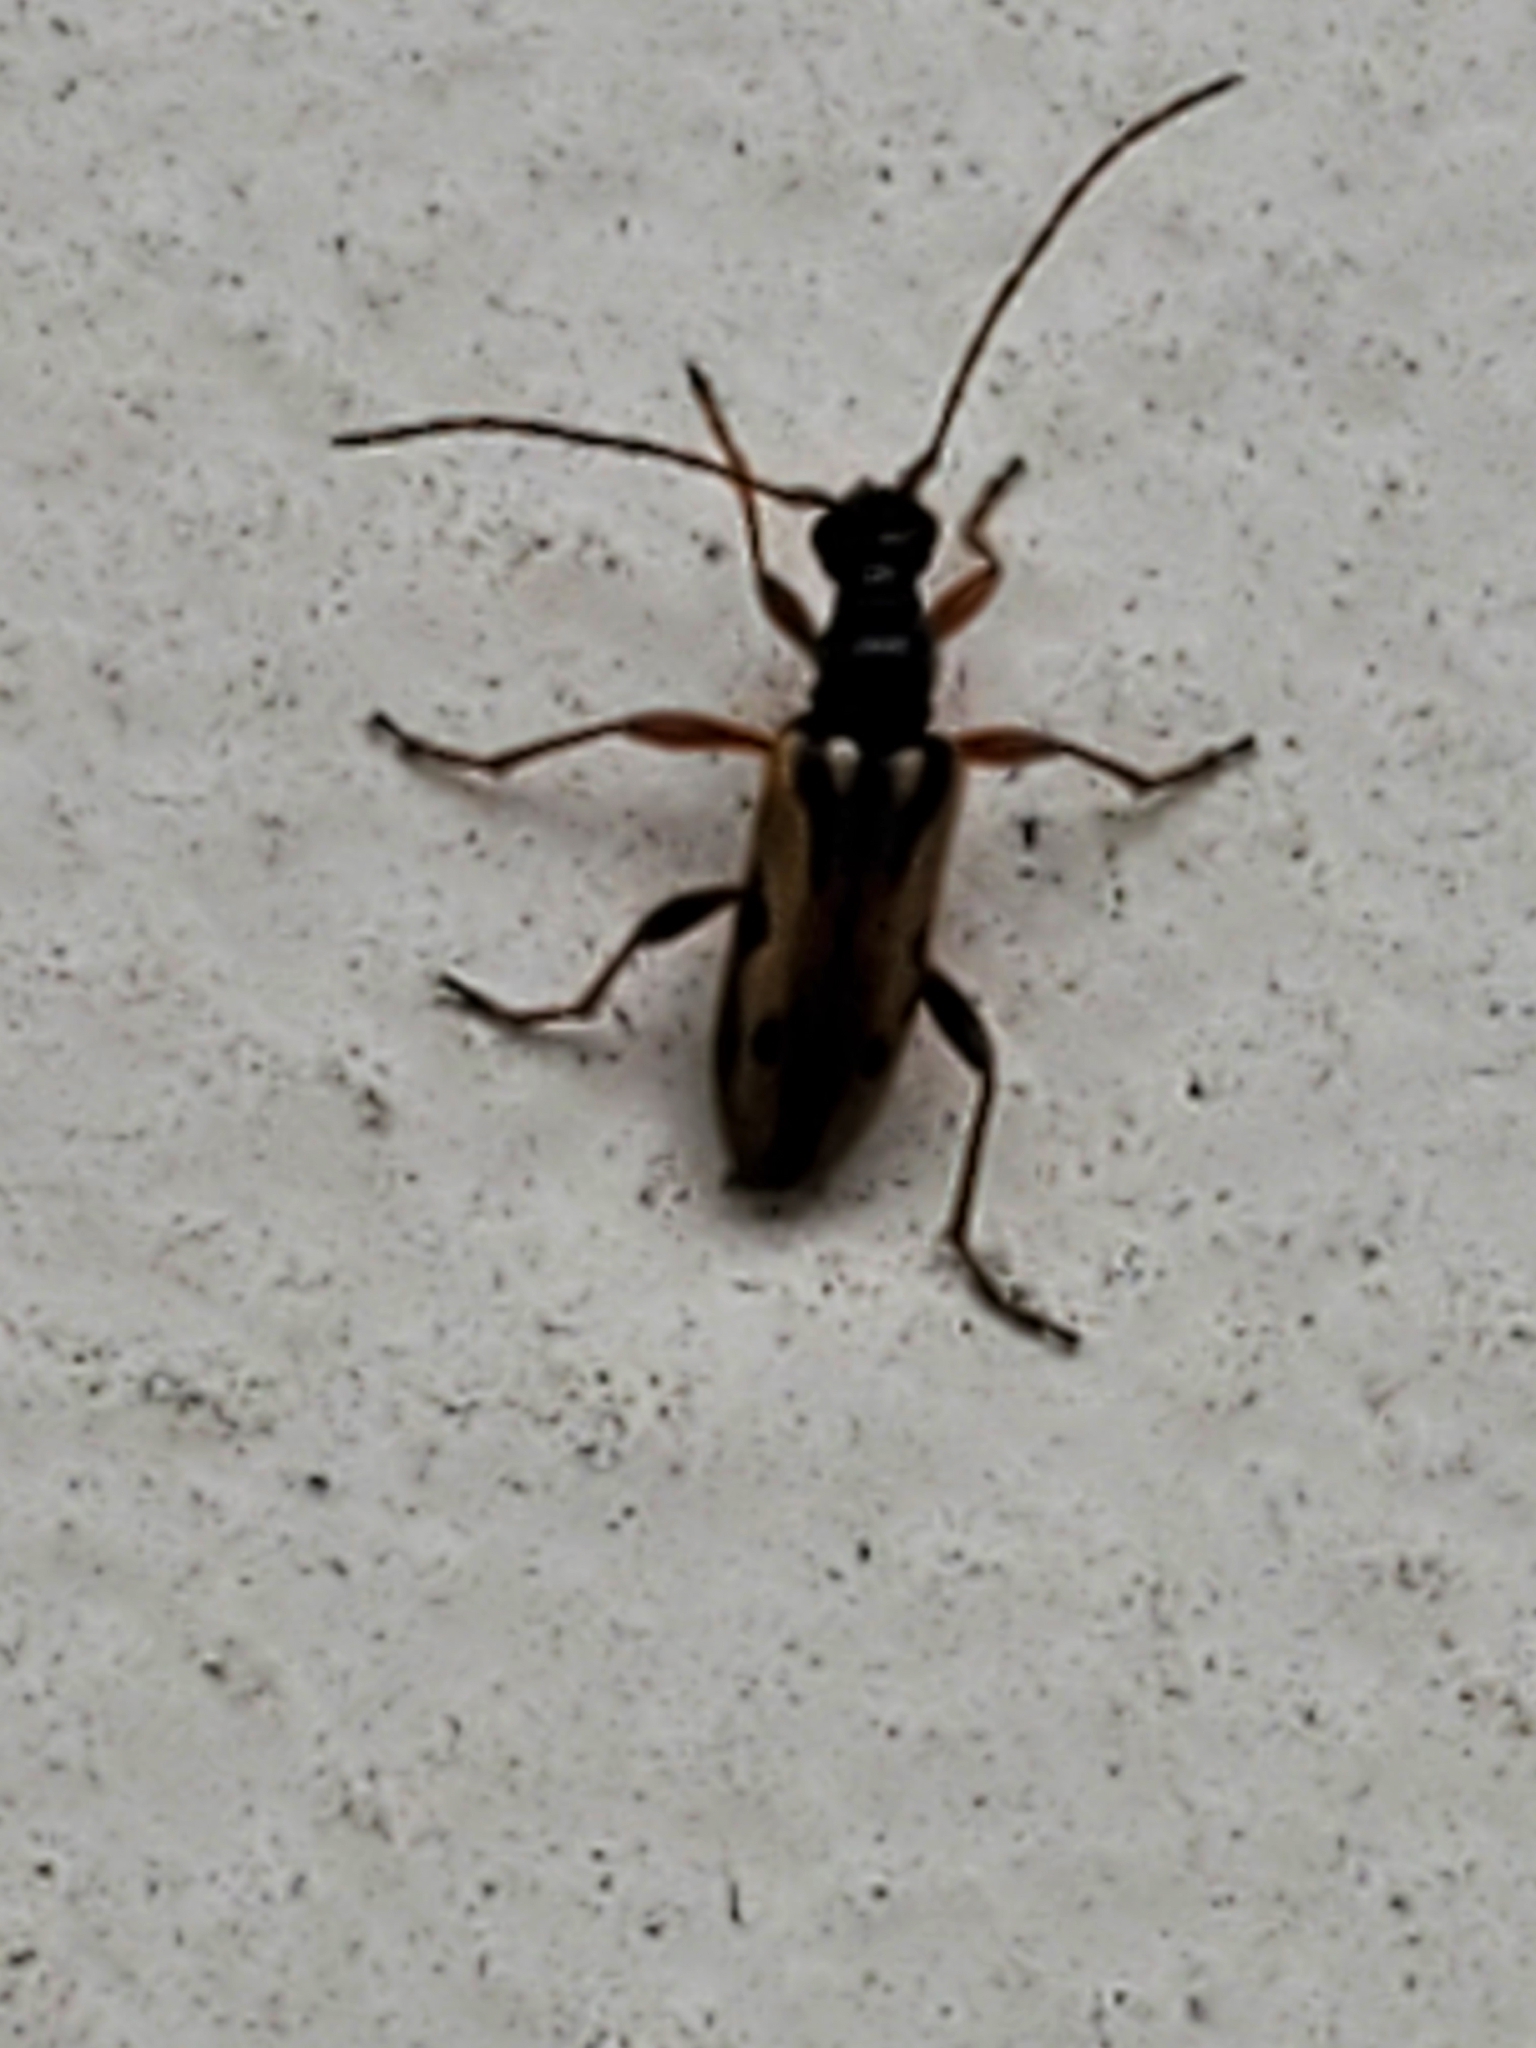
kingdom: Animalia
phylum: Arthropoda
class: Insecta
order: Coleoptera
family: Cerambycidae
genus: Pidonia
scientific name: Pidonia scripta
